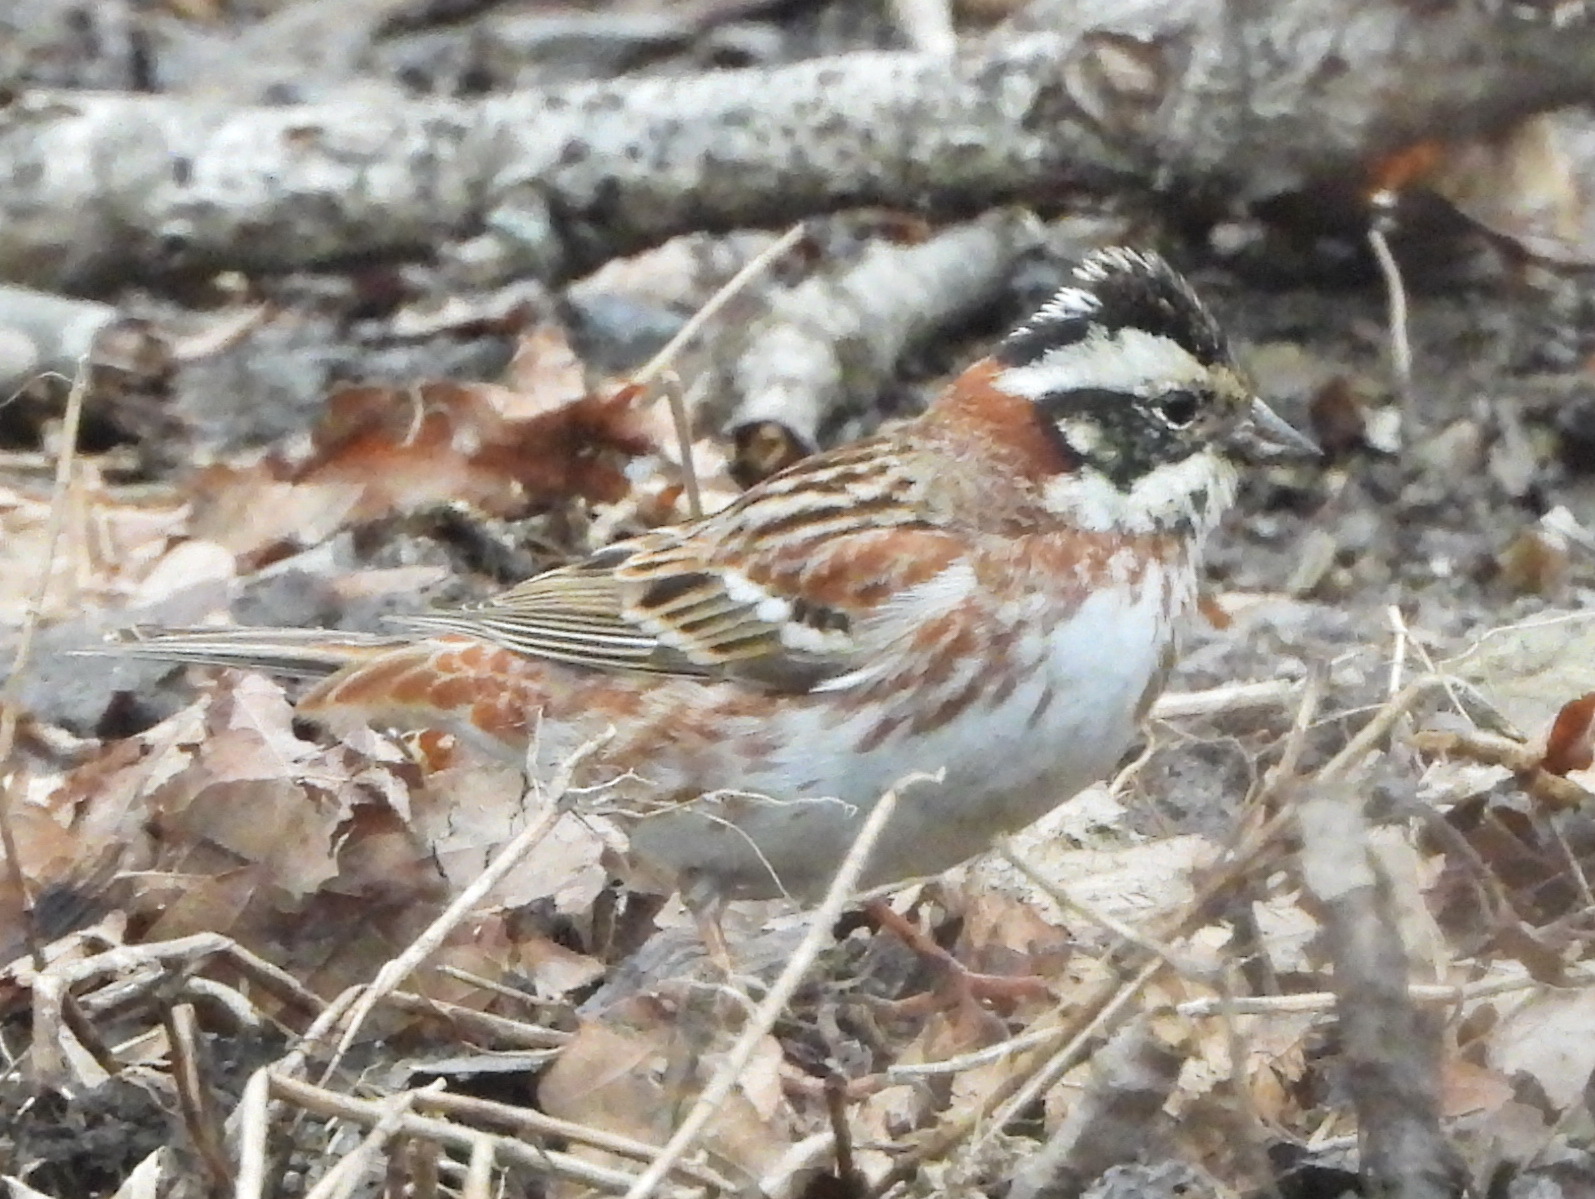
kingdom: Animalia
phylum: Chordata
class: Aves
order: Passeriformes
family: Emberizidae
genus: Emberiza
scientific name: Emberiza rustica
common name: Rustic bunting
